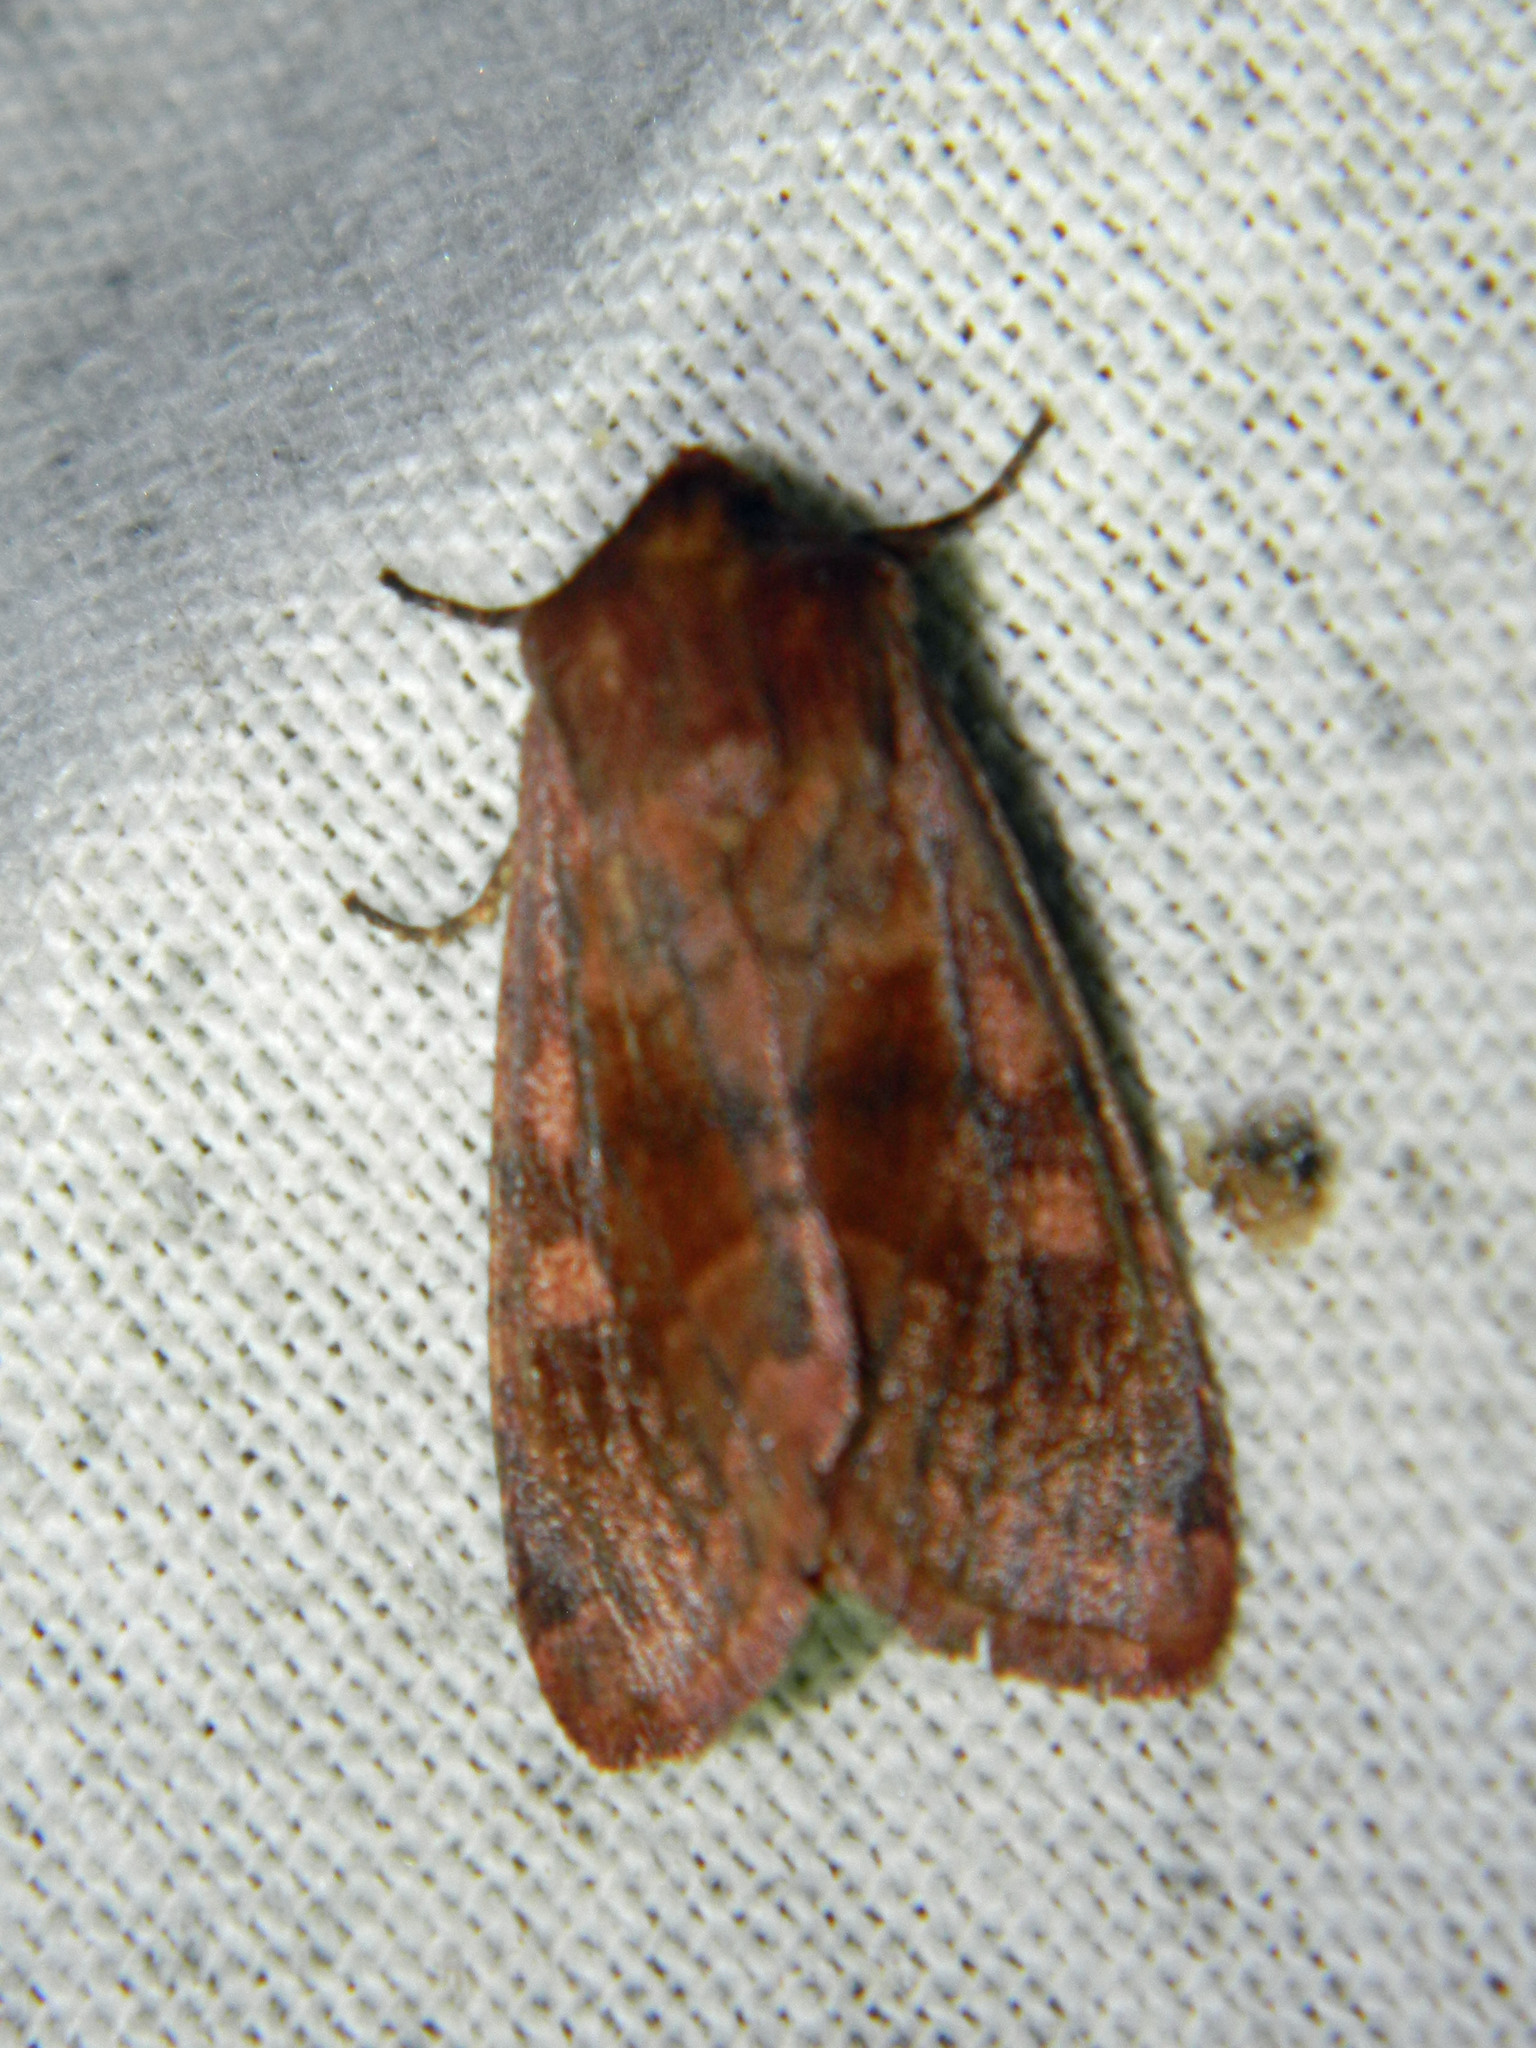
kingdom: Animalia
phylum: Arthropoda
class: Insecta
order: Lepidoptera
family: Noctuidae
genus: Nephelodes
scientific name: Nephelodes minians
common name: Bronzed cutworm
